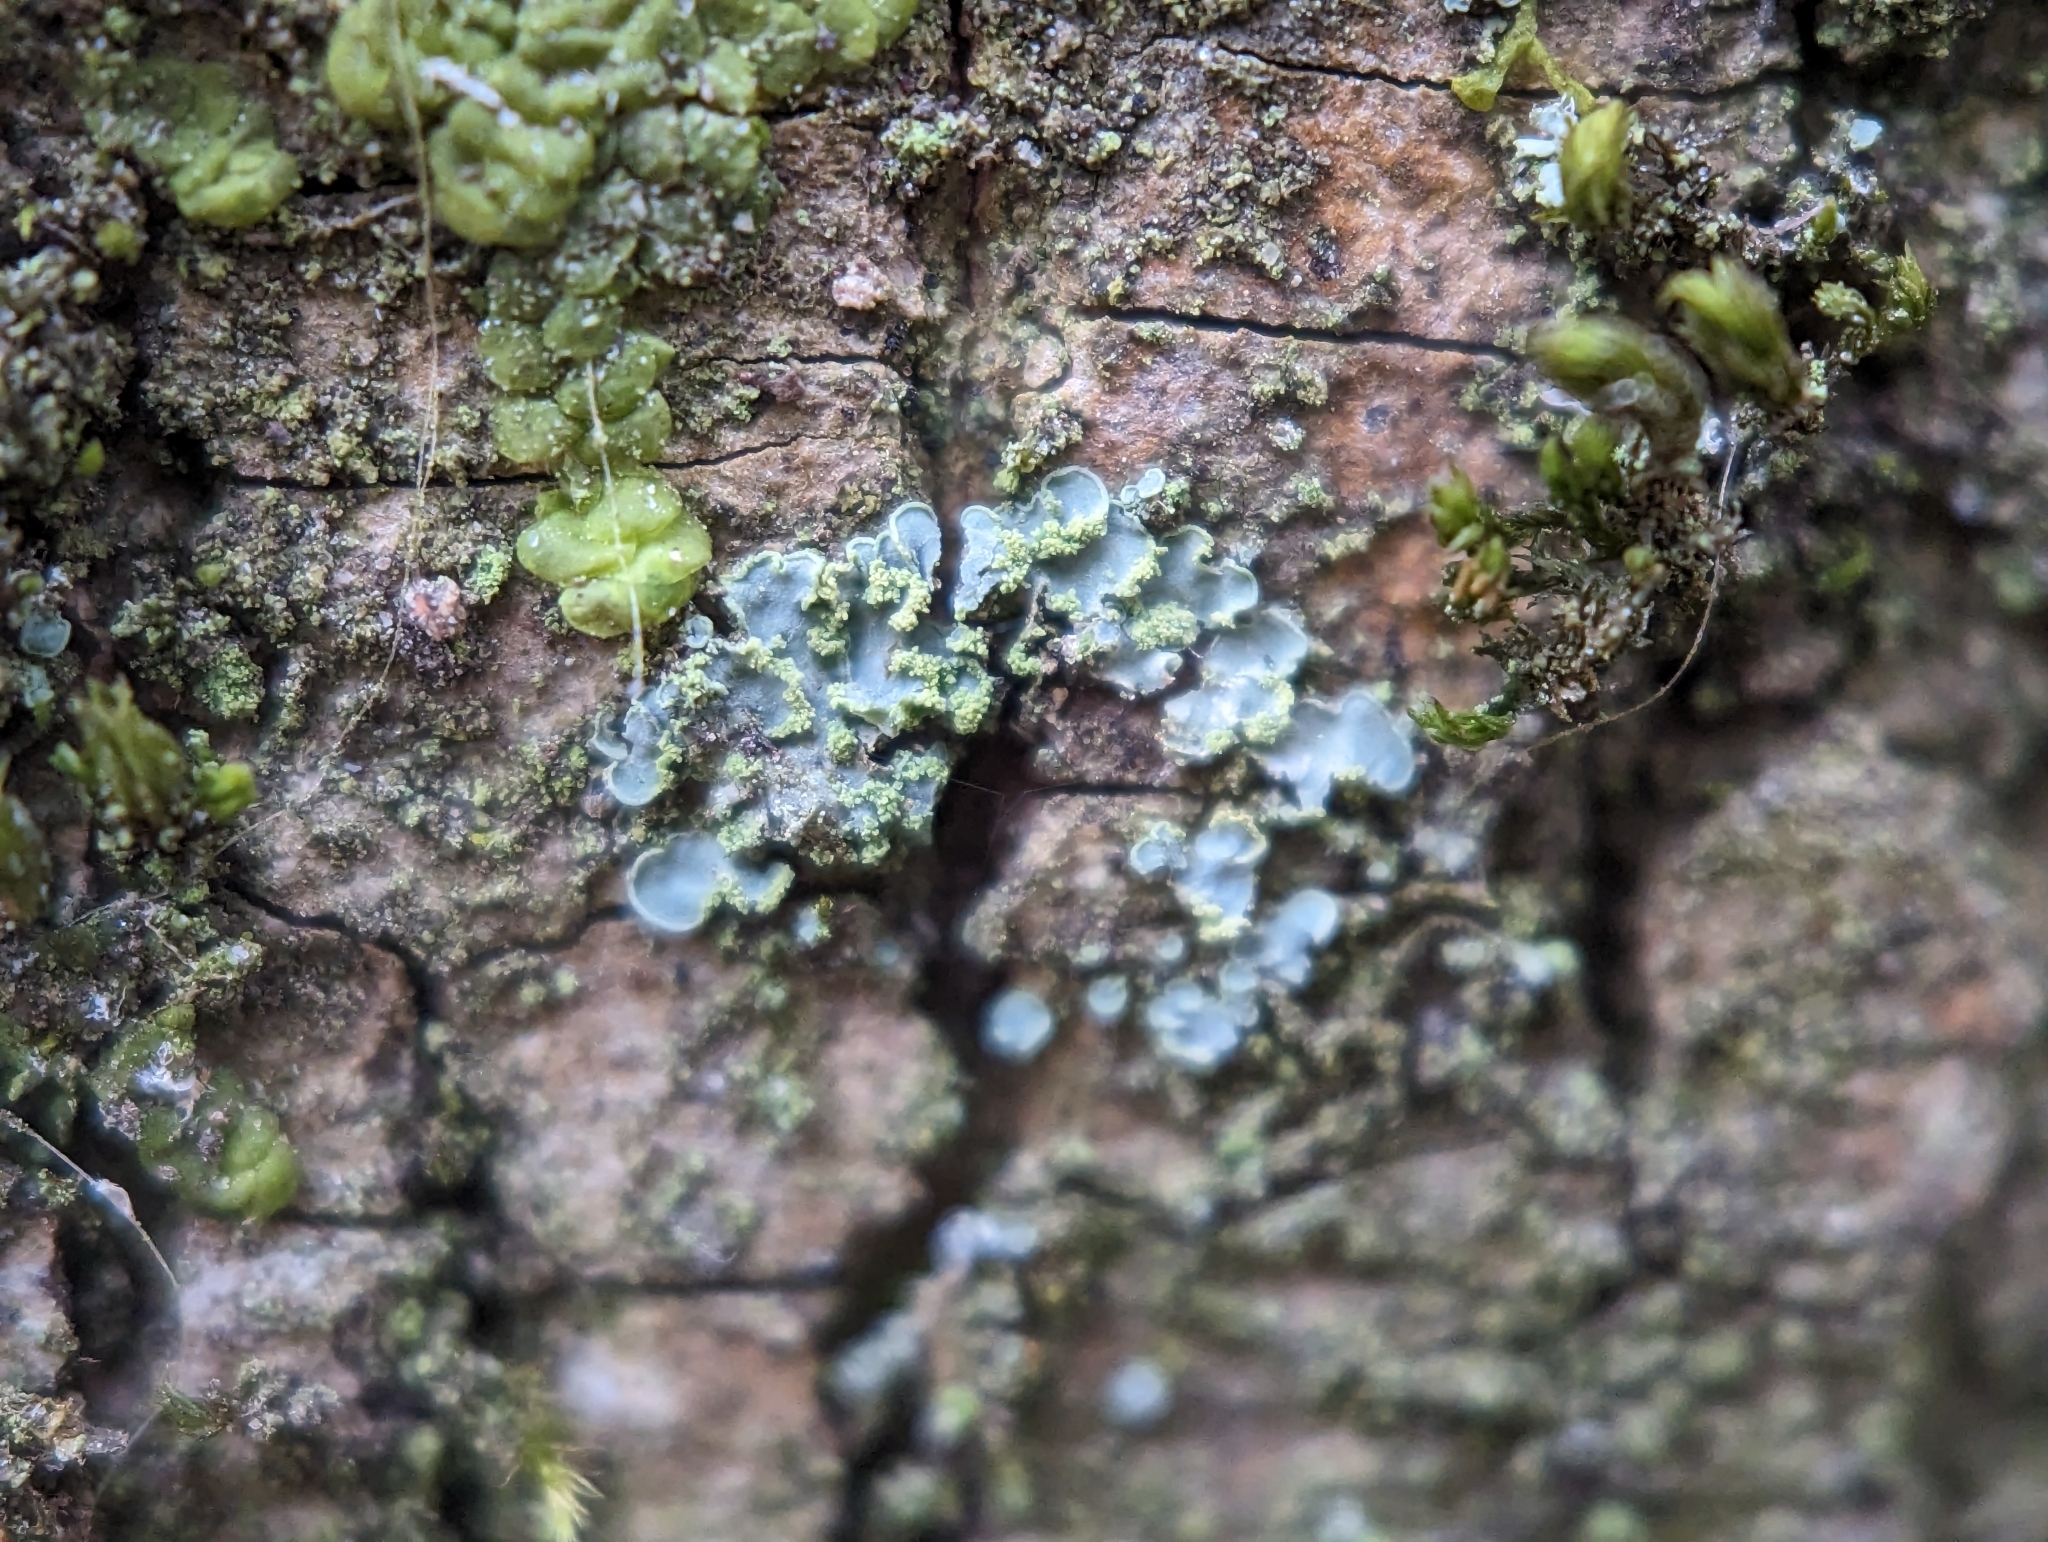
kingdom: Fungi
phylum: Ascomycota
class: Eurotiomycetes
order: Verrucariales
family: Verrucariaceae
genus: Normandina
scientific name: Normandina pulchella
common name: Elf ears lichen
